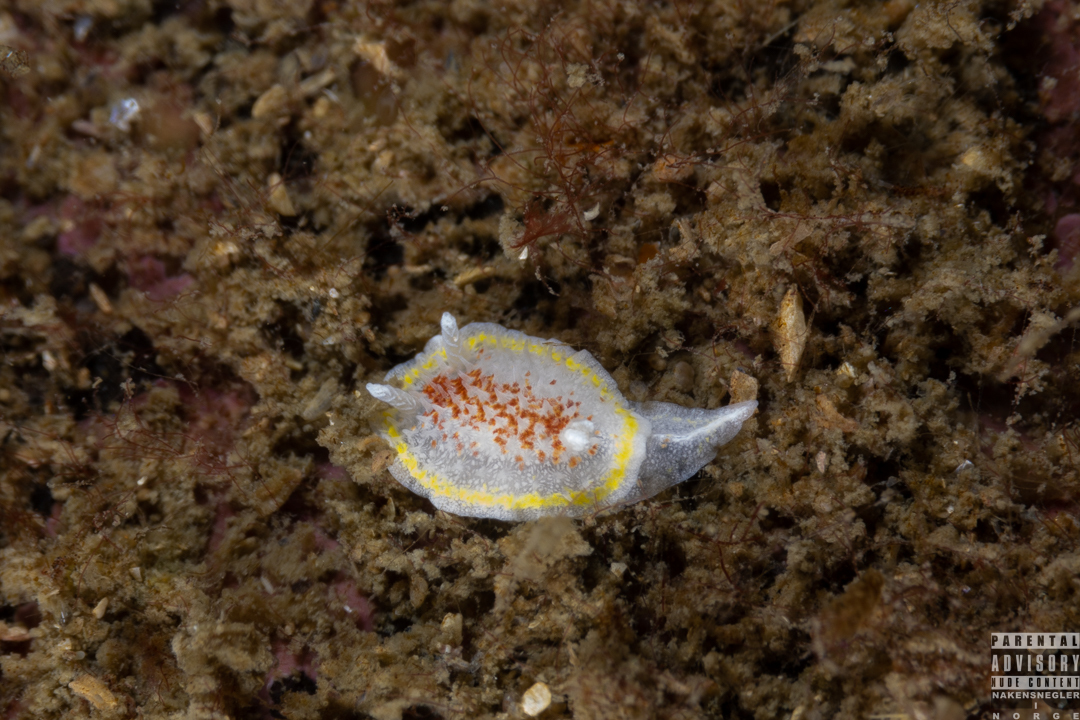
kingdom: Animalia
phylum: Mollusca
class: Gastropoda
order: Nudibranchia
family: Calycidorididae
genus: Diaphorodoris
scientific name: Diaphorodoris luteocincta
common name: Fried egg nudibranch
